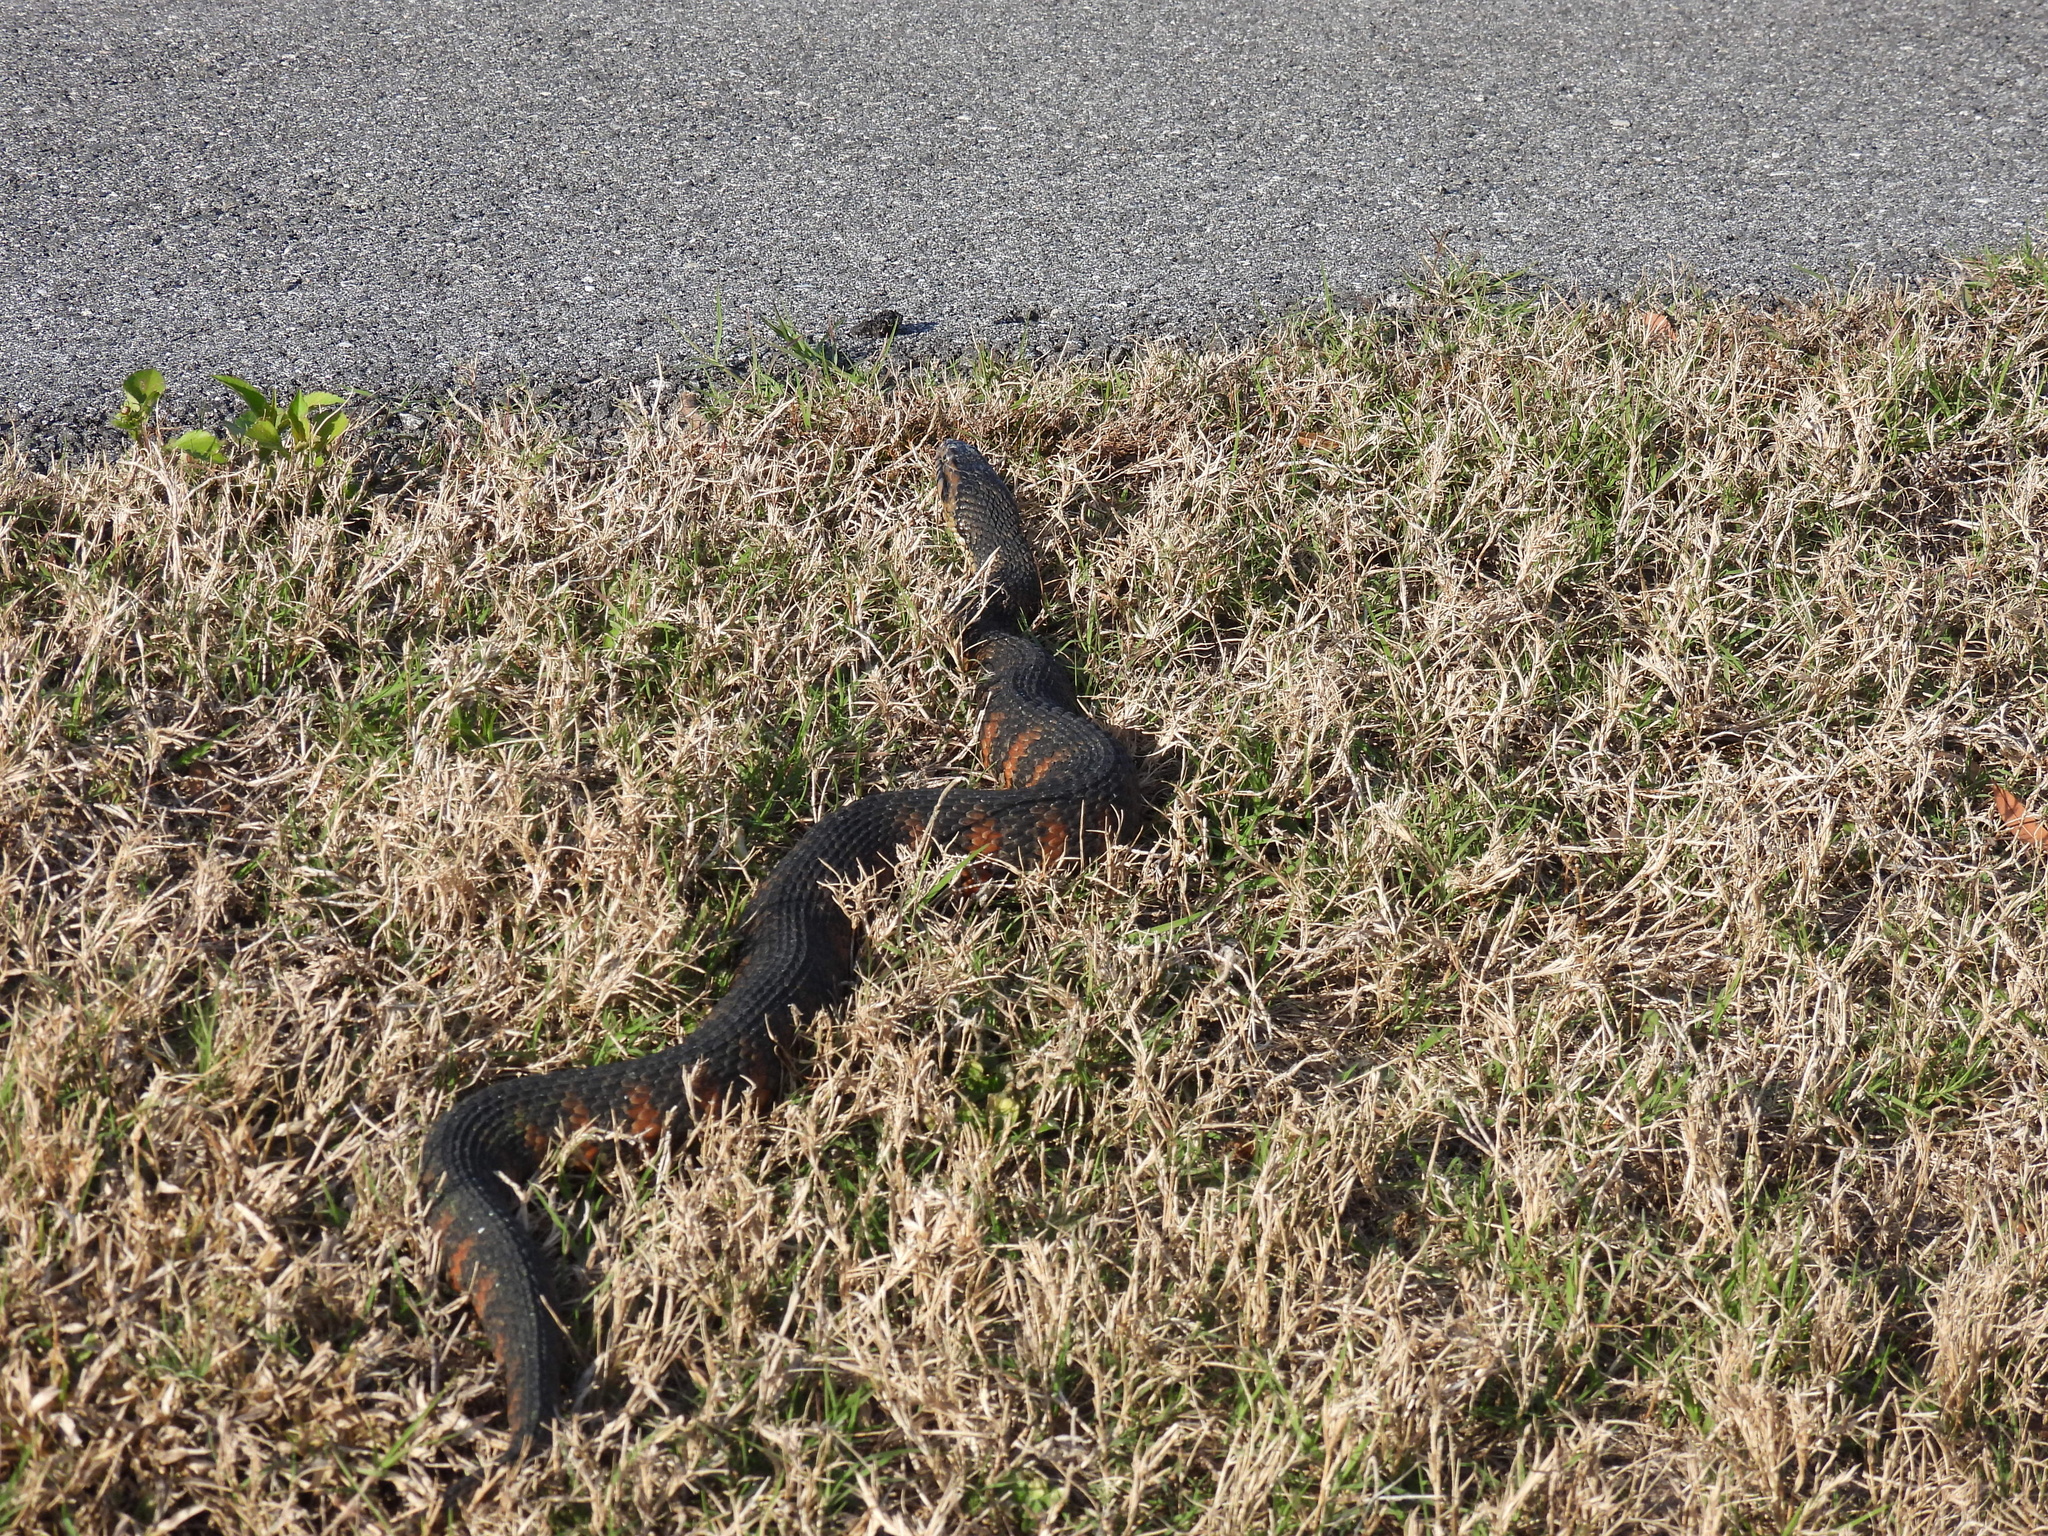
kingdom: Animalia
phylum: Chordata
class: Squamata
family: Colubridae
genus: Nerodia
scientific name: Nerodia fasciata
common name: Southern water snake
